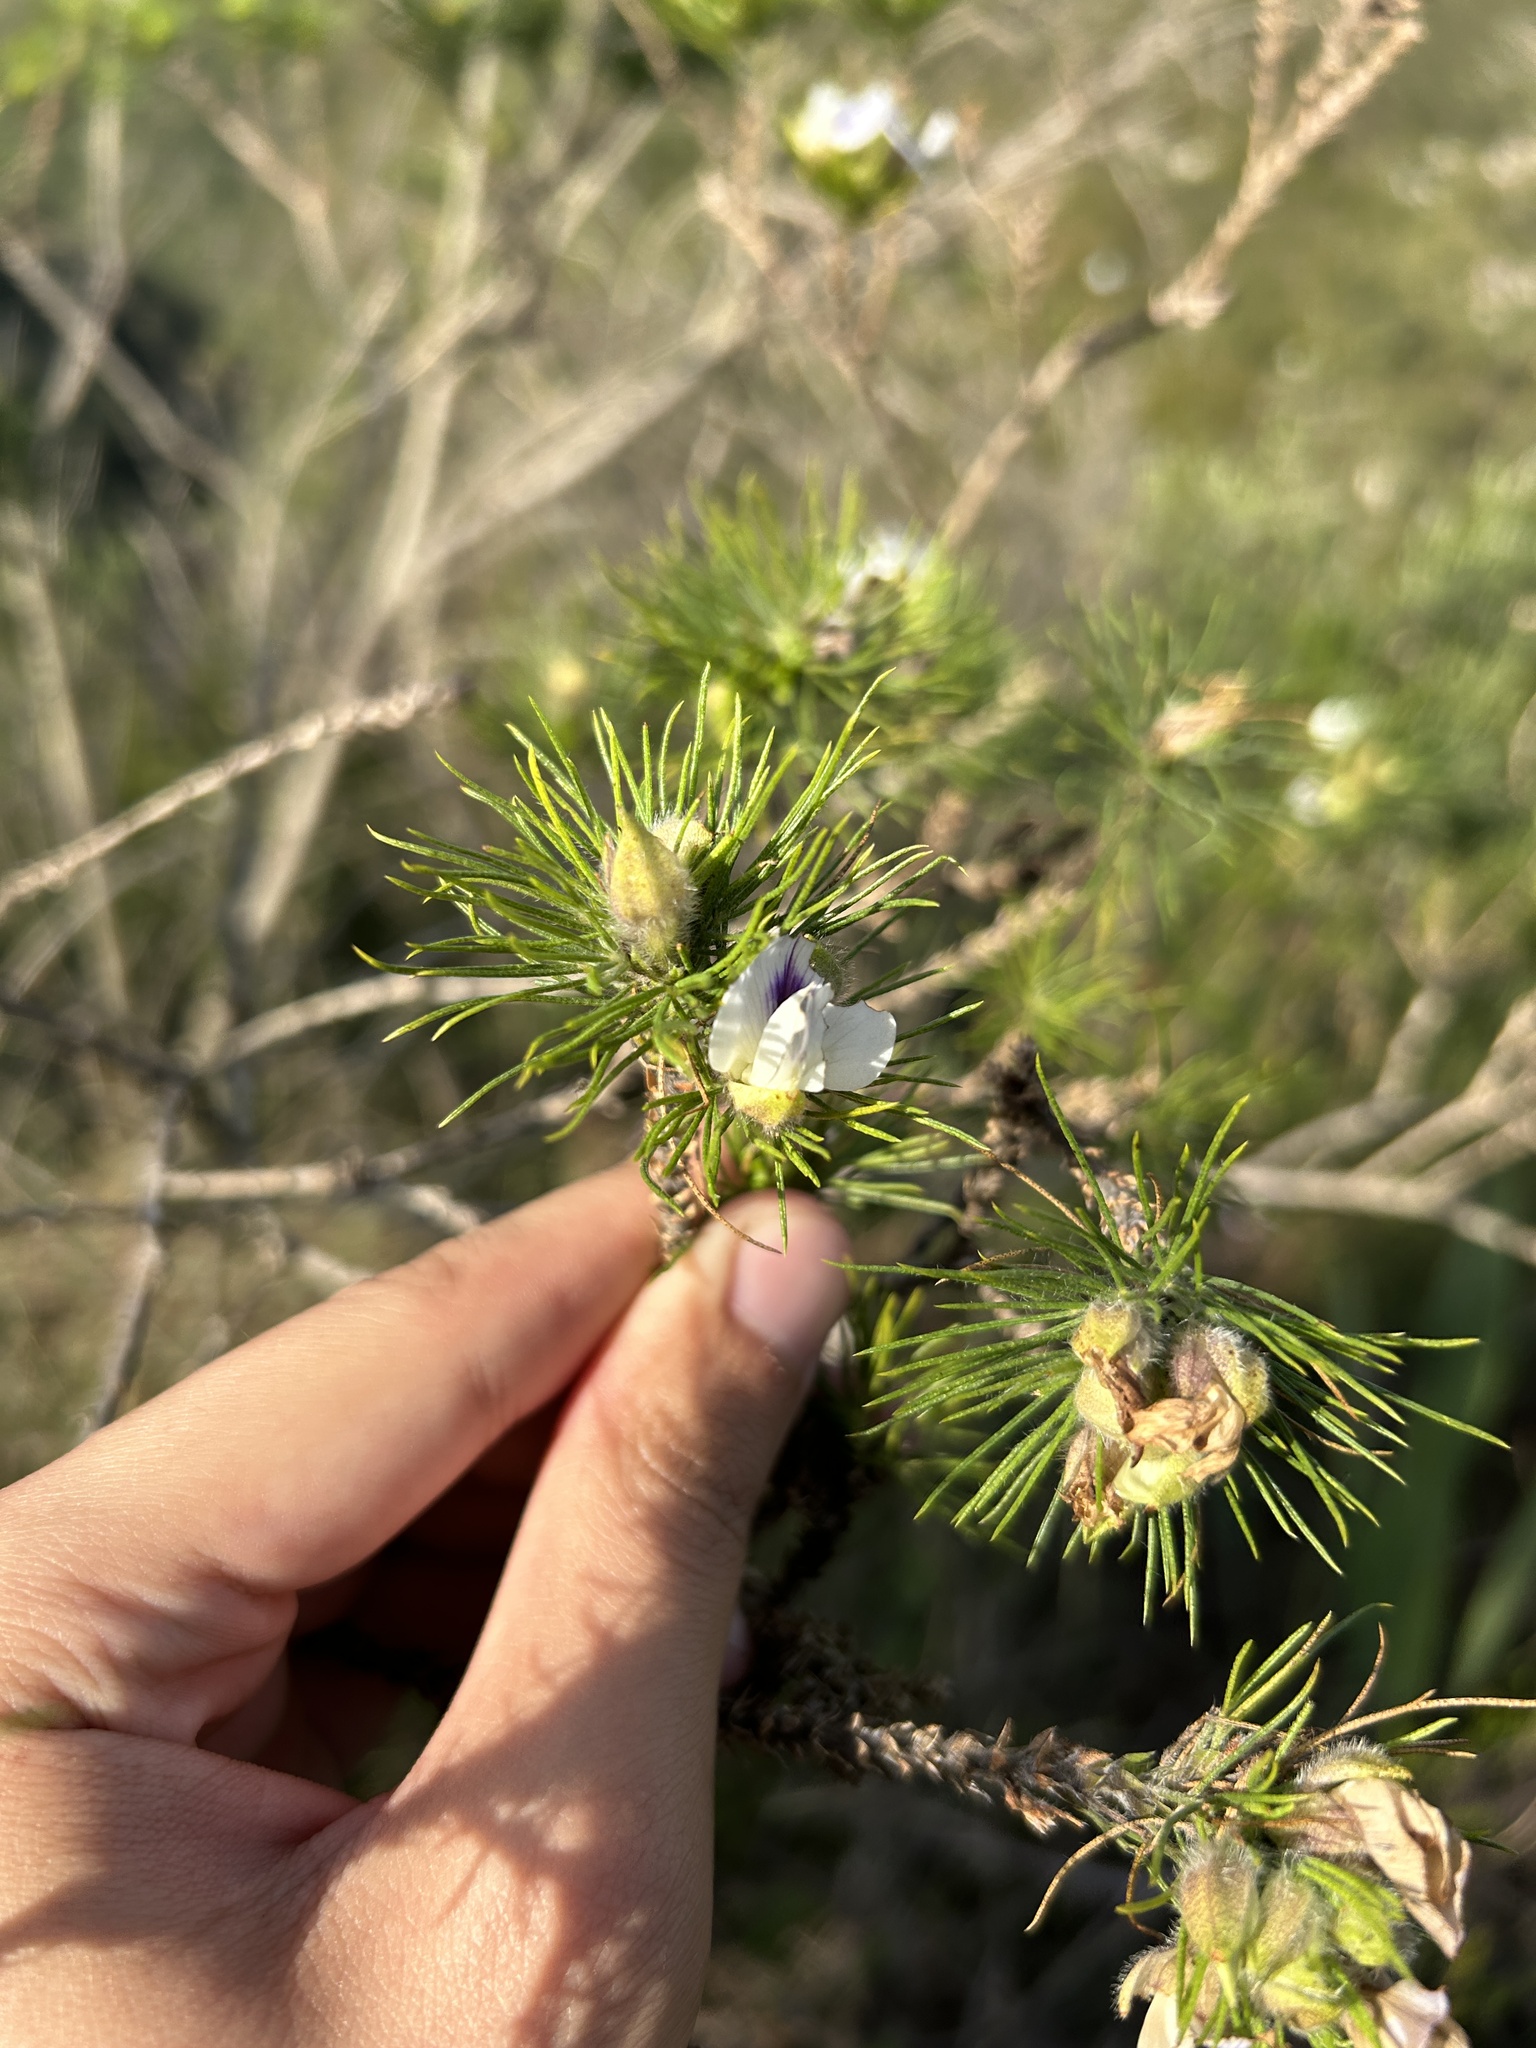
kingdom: Plantae
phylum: Tracheophyta
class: Magnoliopsida
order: Fabales
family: Fabaceae
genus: Psoralea
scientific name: Psoralea floccosa
